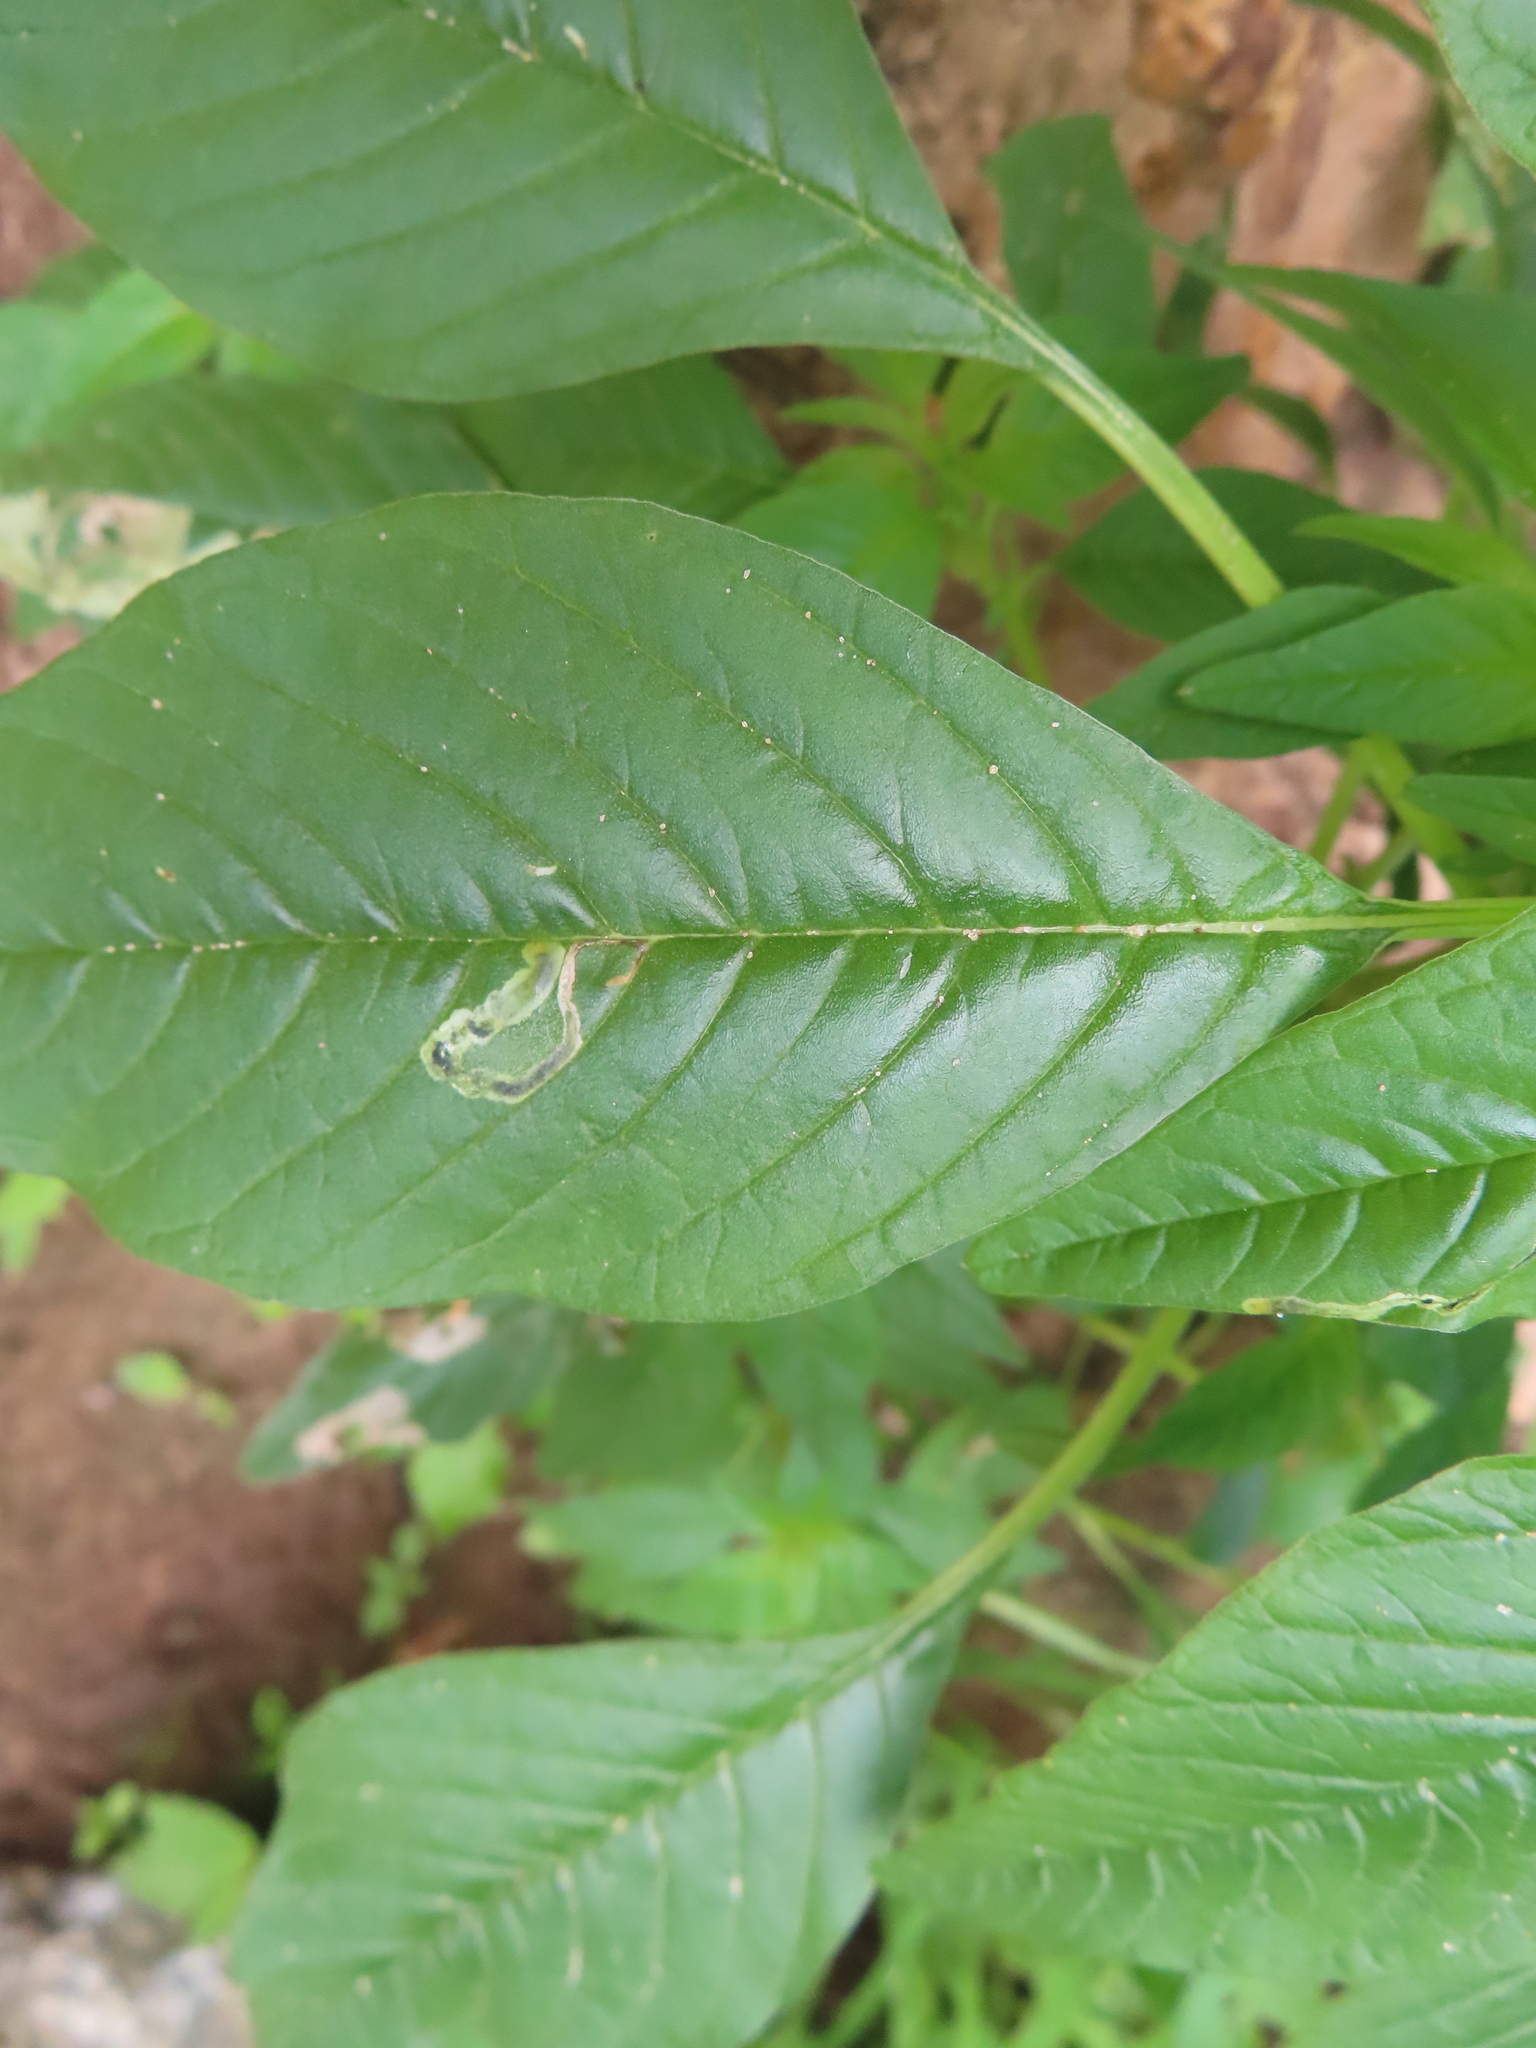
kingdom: Animalia
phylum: Arthropoda
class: Insecta
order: Diptera
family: Anthomyiidae
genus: Pegomya
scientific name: Pegomya wygodzinskyi
